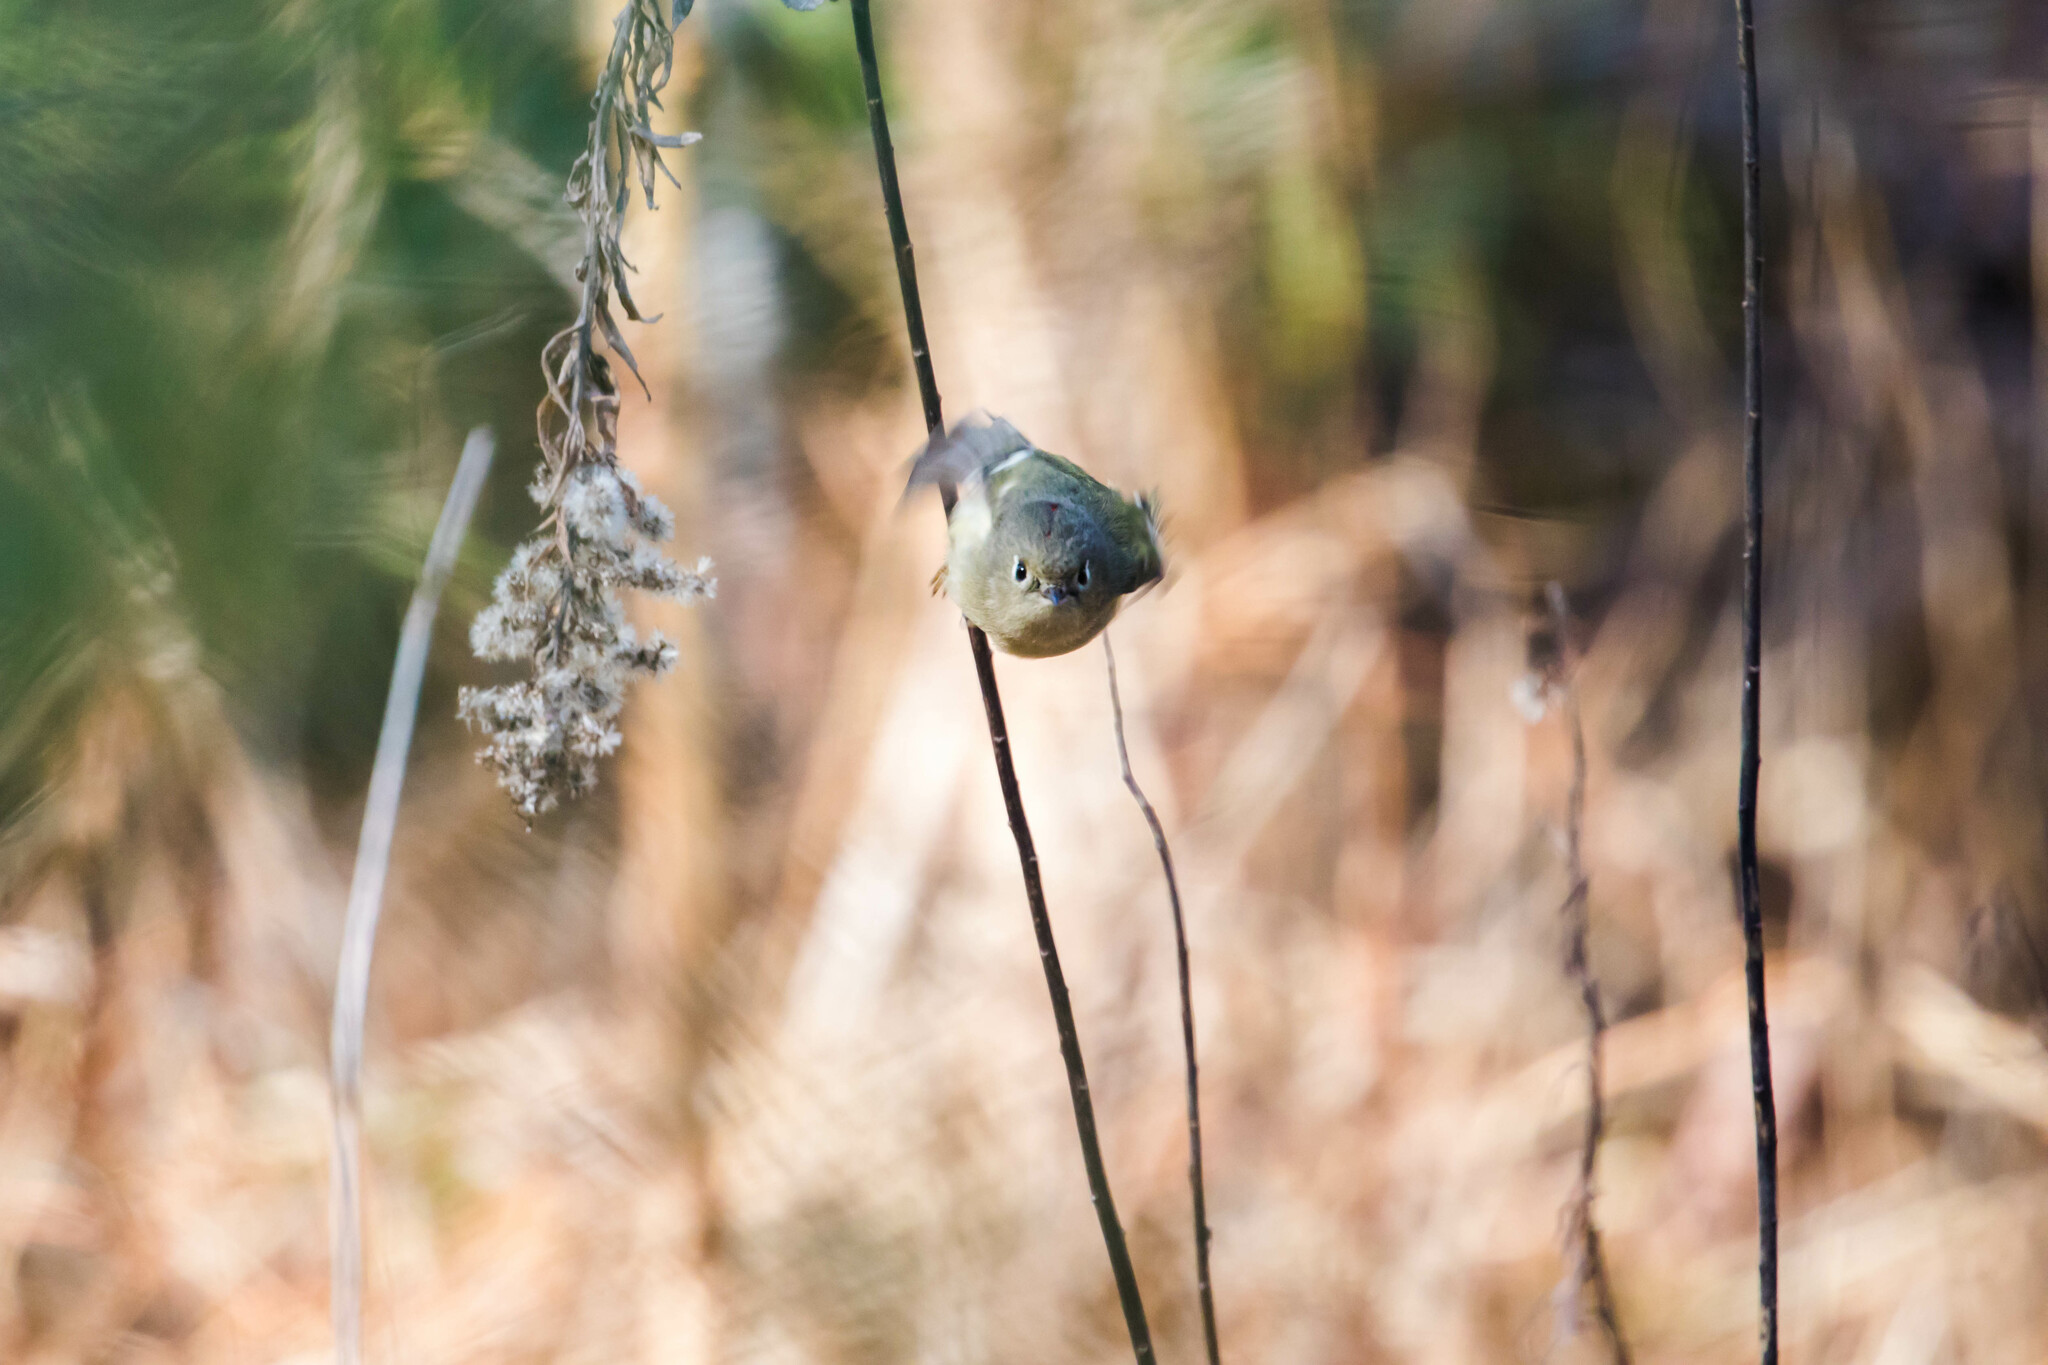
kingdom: Animalia
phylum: Chordata
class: Aves
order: Passeriformes
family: Regulidae
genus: Regulus
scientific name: Regulus calendula
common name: Ruby-crowned kinglet
